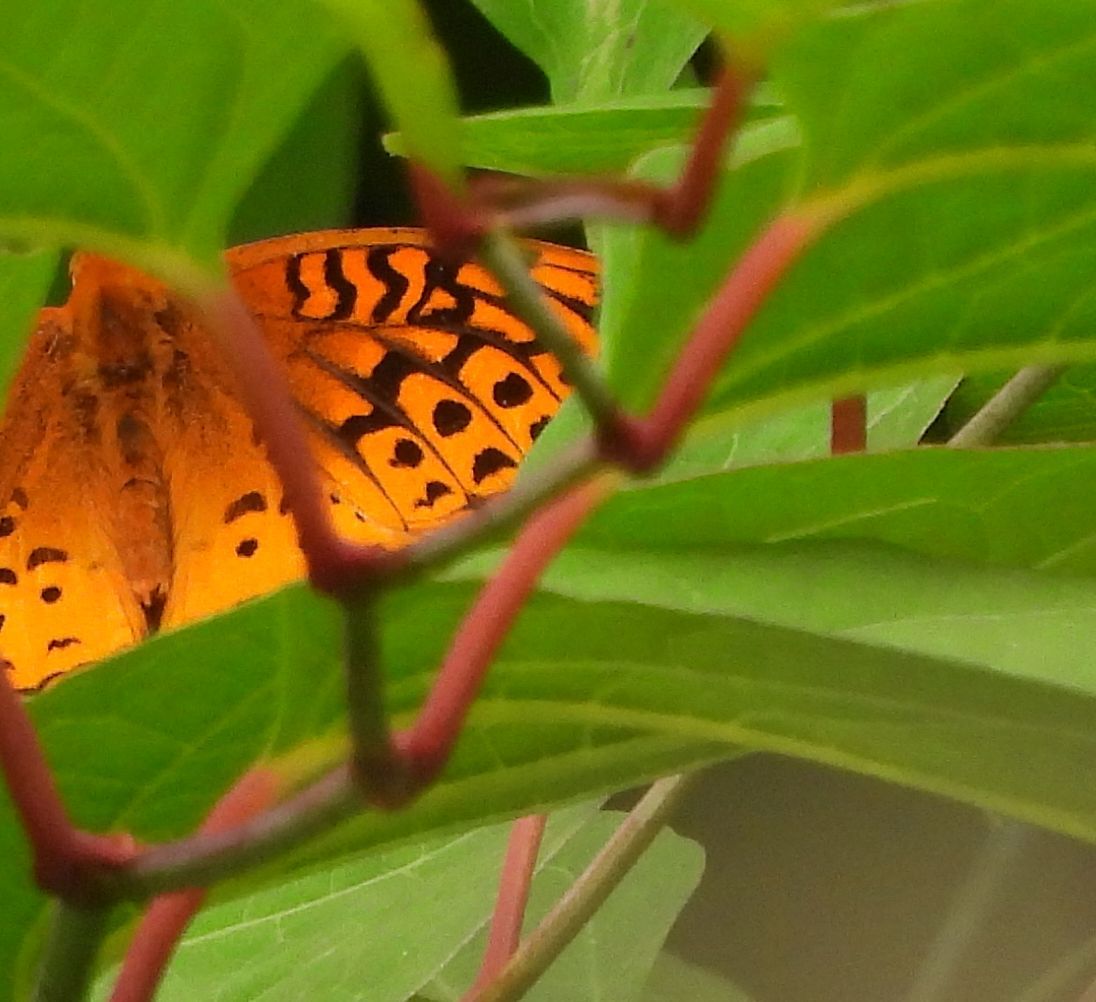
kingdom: Animalia
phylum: Arthropoda
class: Insecta
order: Lepidoptera
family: Nymphalidae
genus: Speyeria
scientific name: Speyeria cybele
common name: Great spangled fritillary
